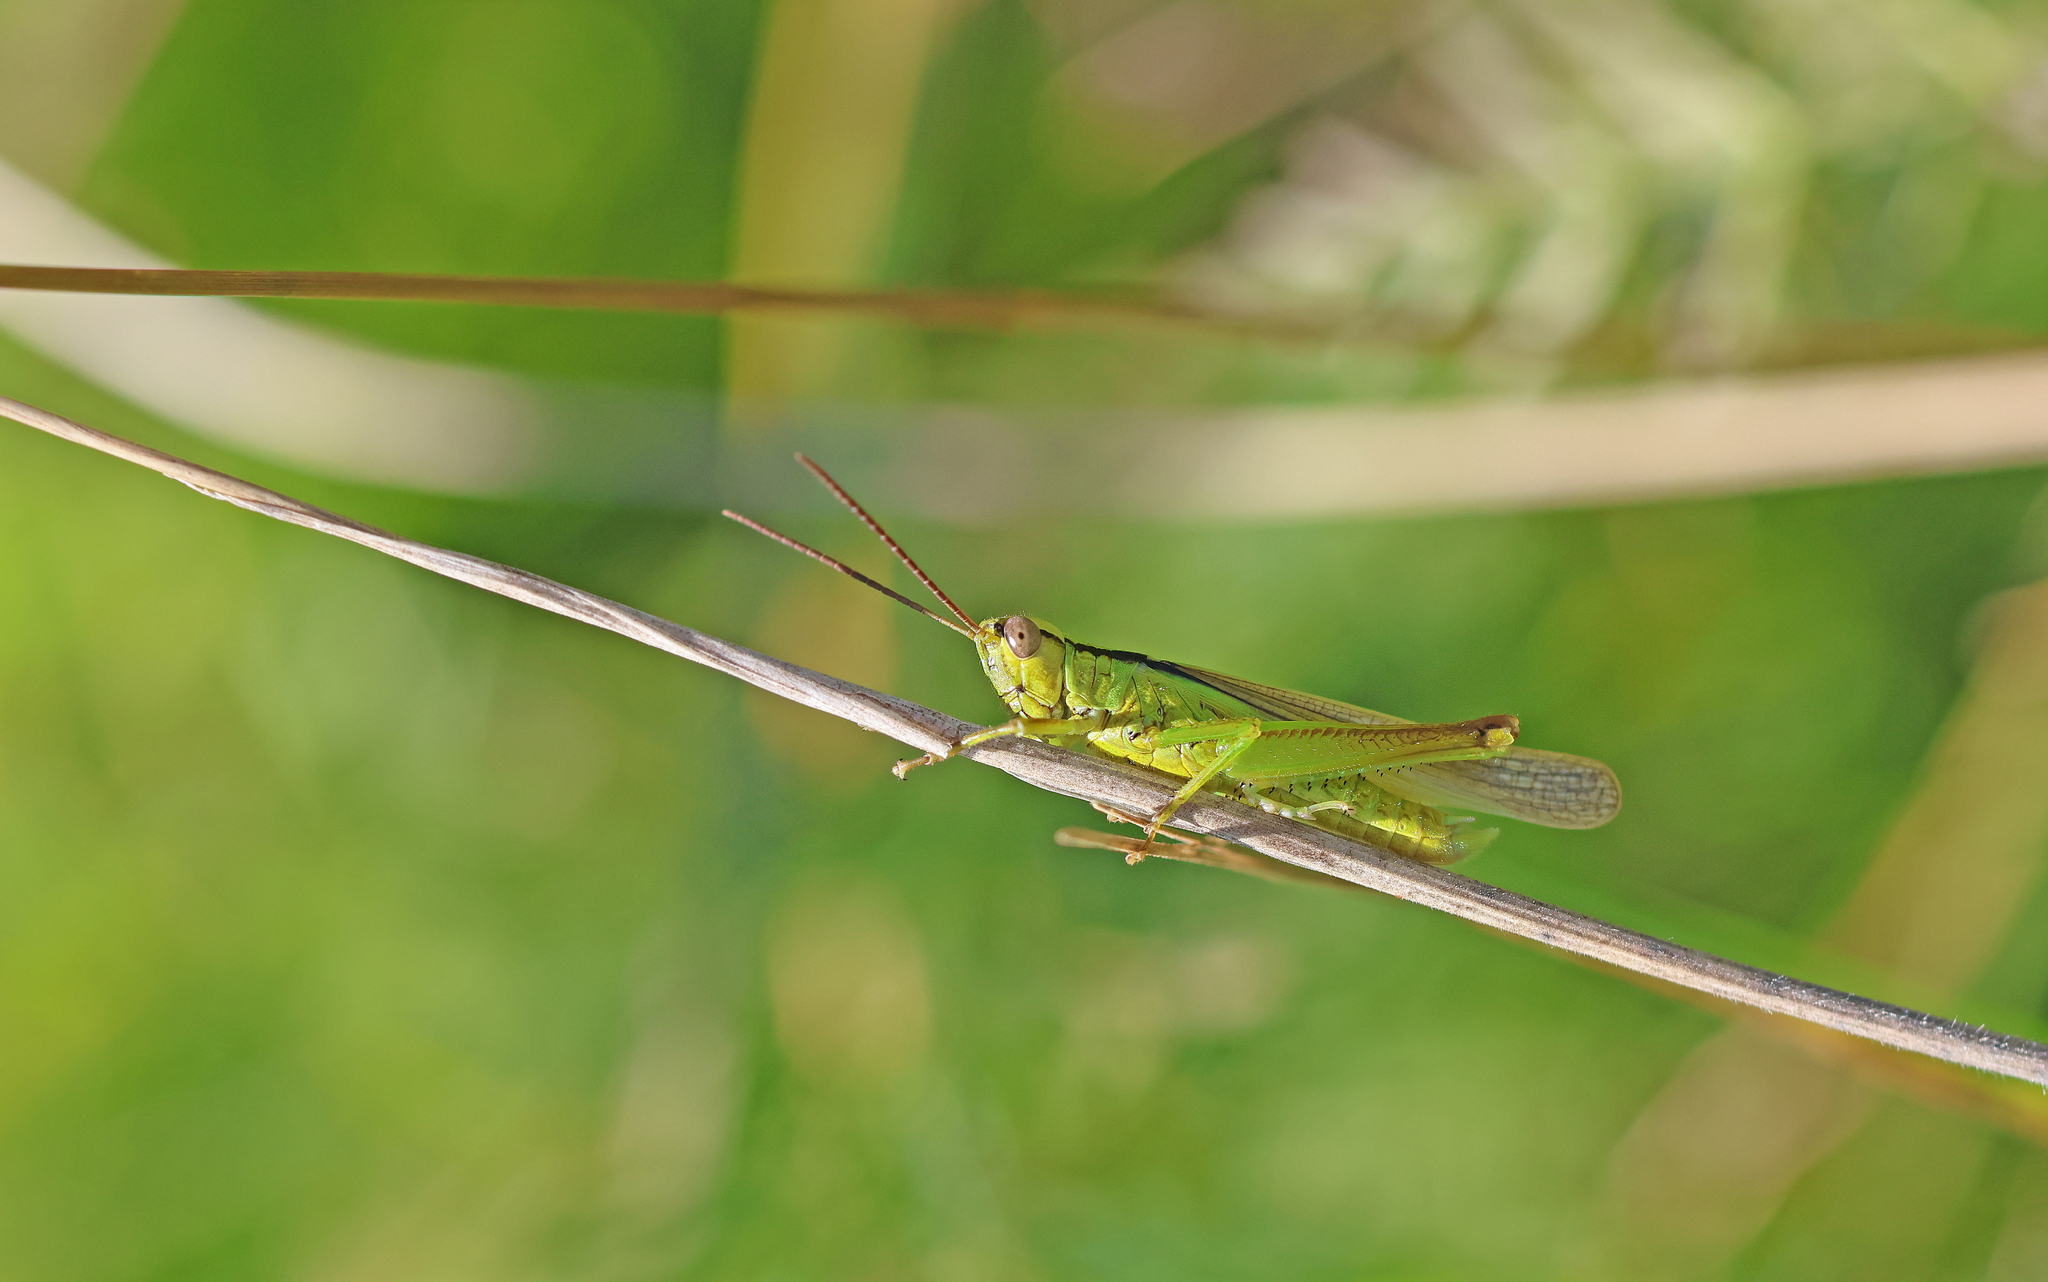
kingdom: Animalia
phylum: Arthropoda
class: Insecta
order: Orthoptera
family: Acrididae
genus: Mecostethus
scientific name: Mecostethus parapleurus
